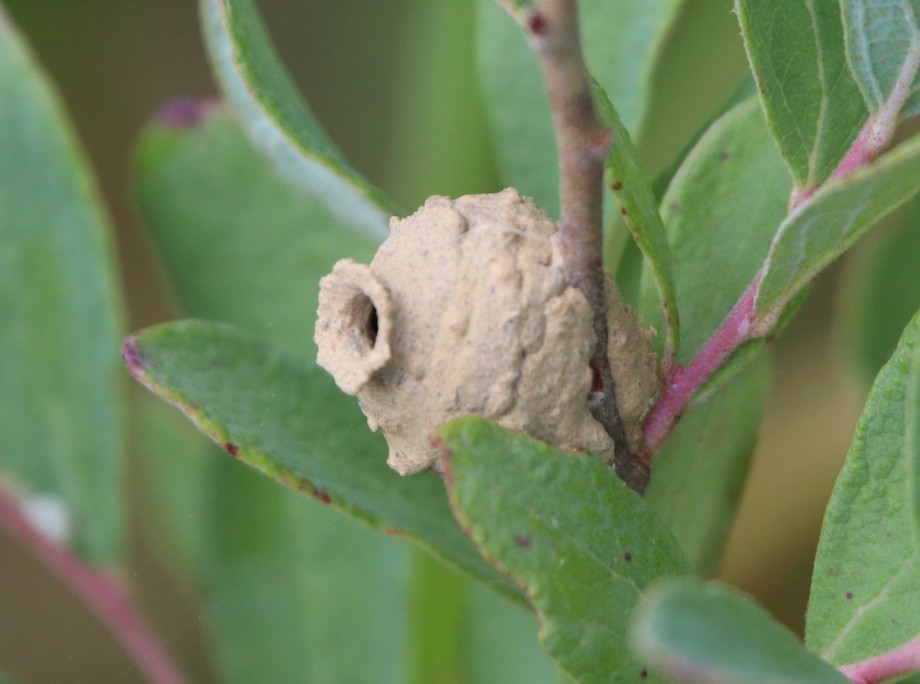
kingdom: Animalia
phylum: Arthropoda
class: Insecta
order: Hymenoptera
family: Vespidae
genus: Eumenes
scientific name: Eumenes
